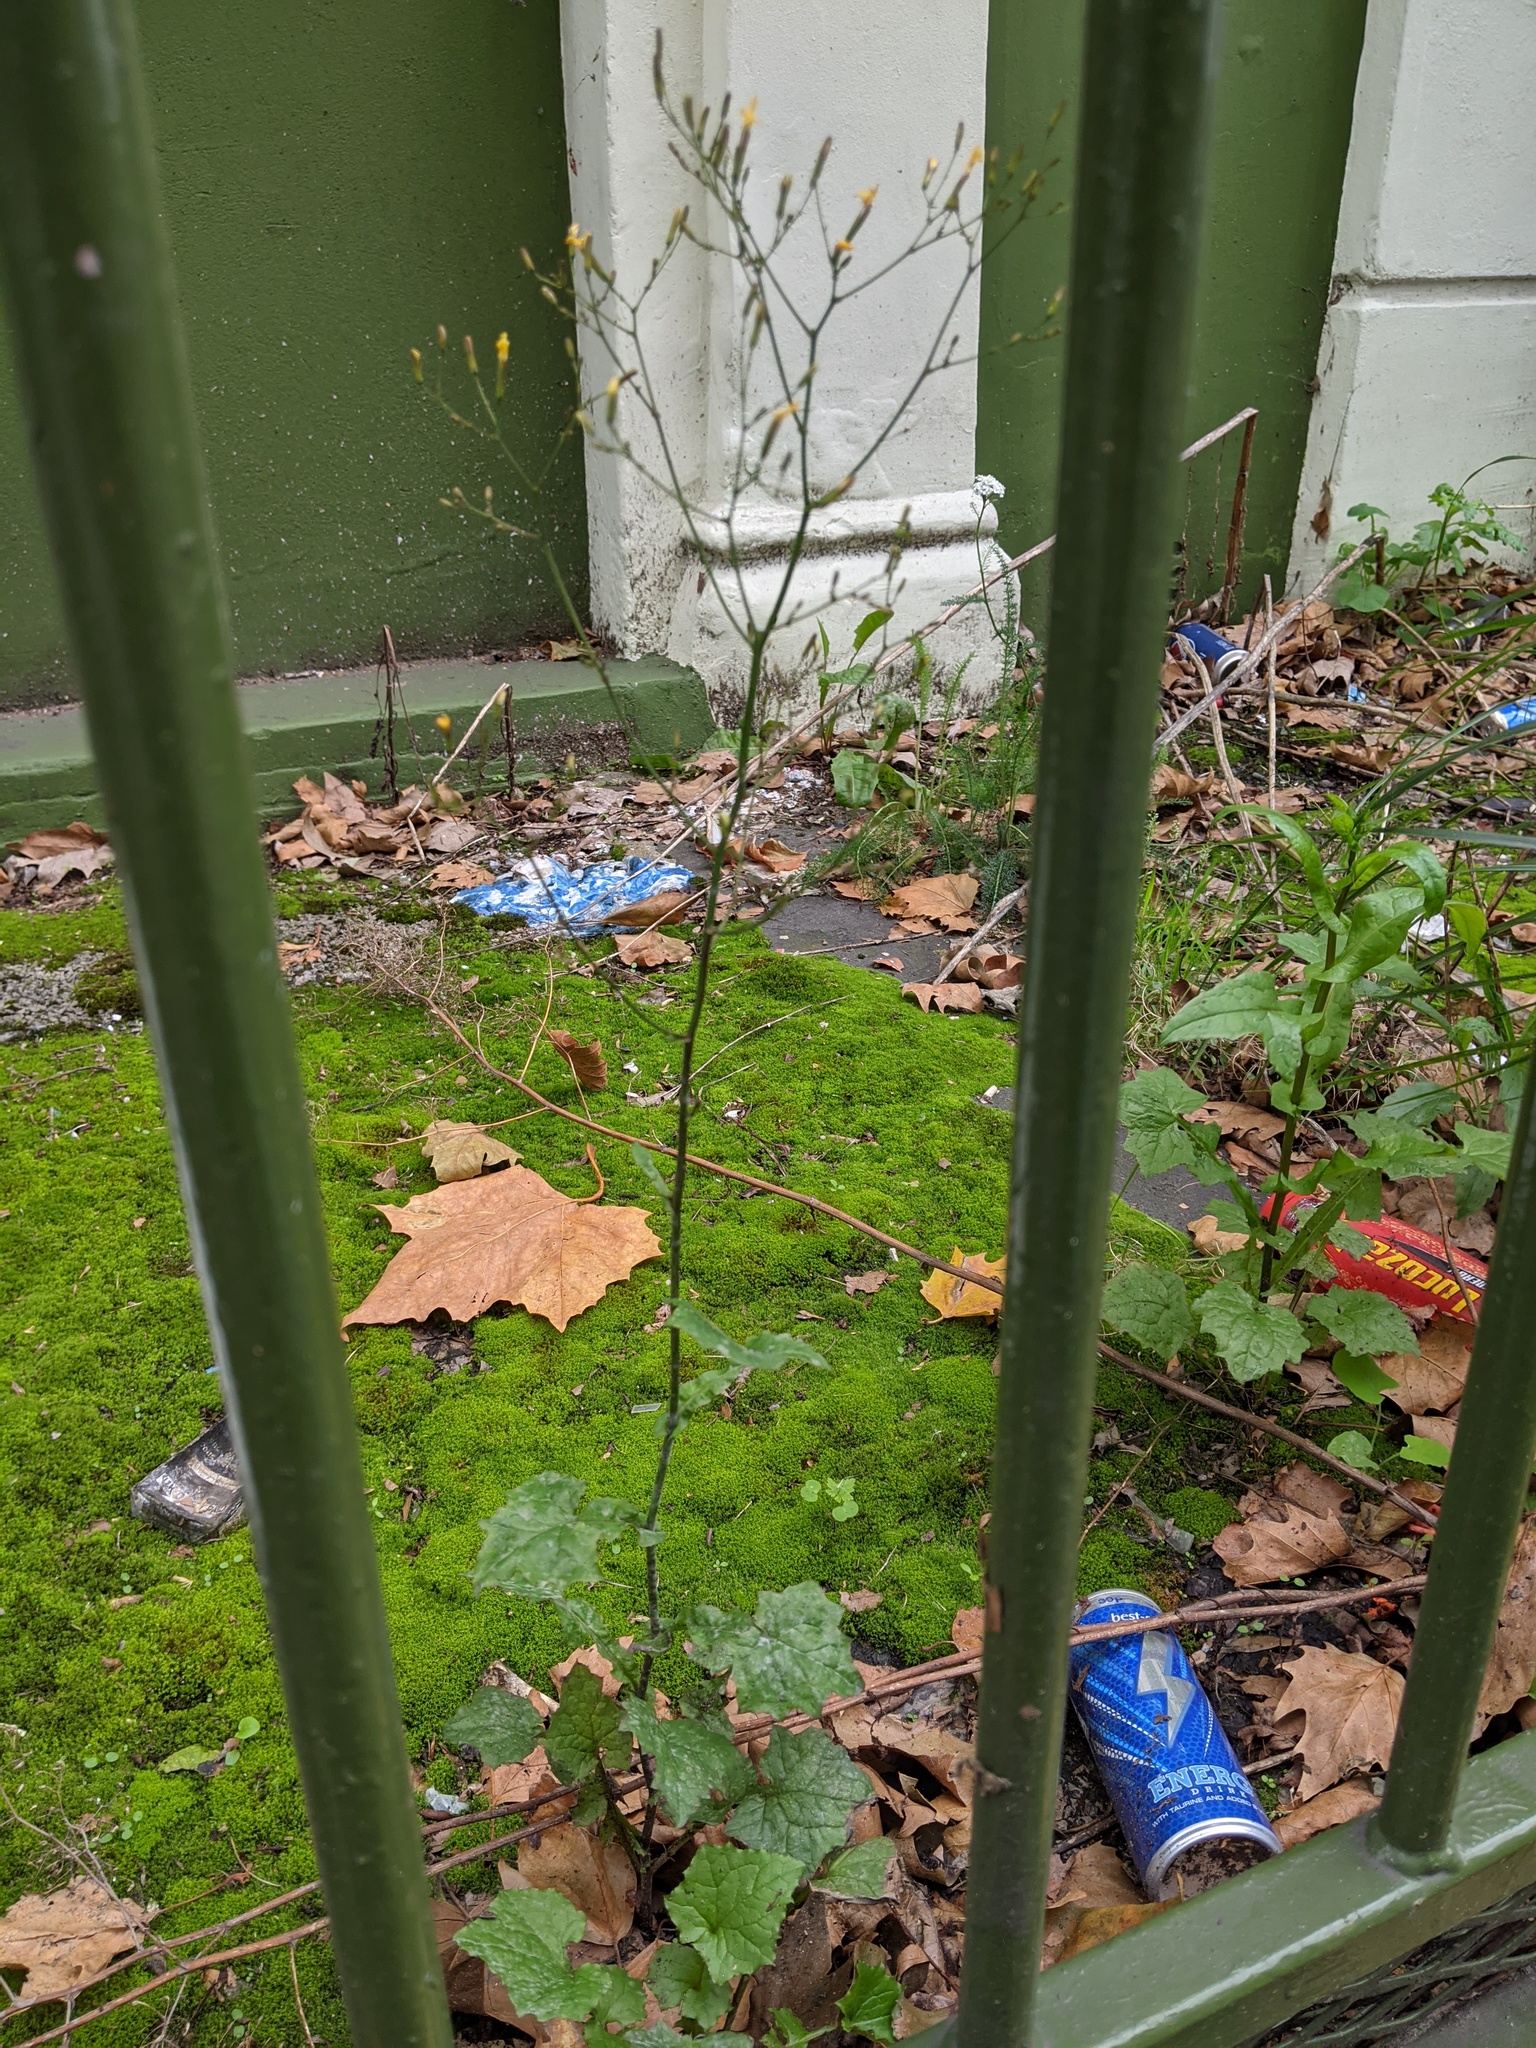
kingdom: Plantae
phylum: Tracheophyta
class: Magnoliopsida
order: Asterales
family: Asteraceae
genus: Mycelis
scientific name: Mycelis muralis
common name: Wall lettuce
